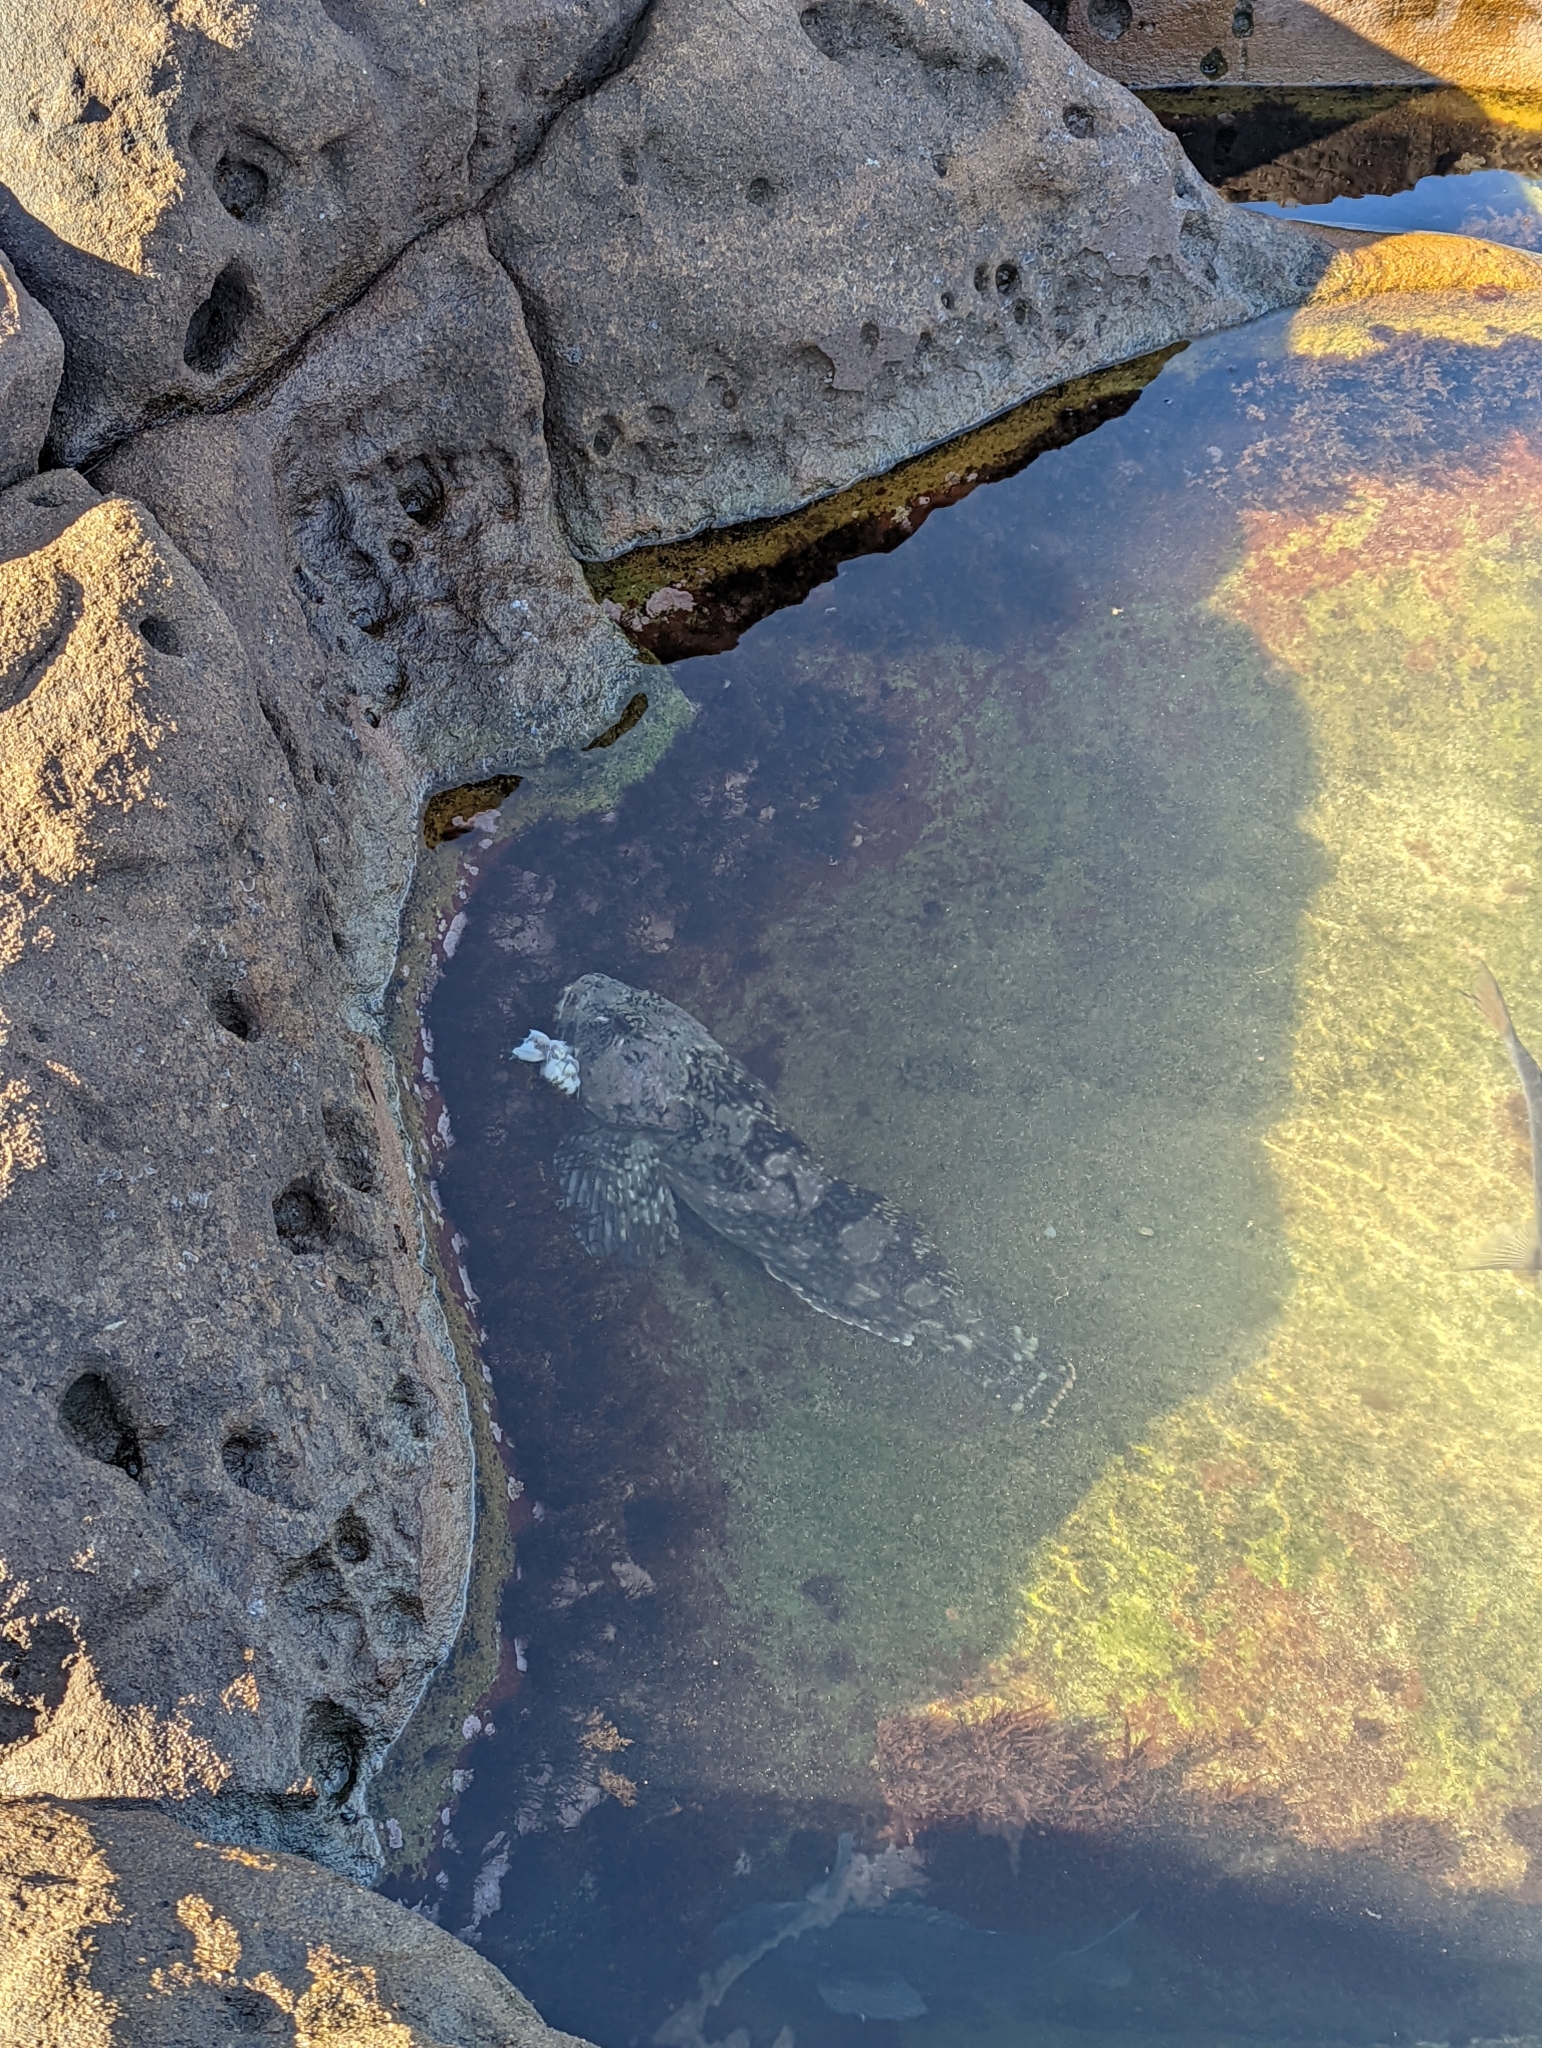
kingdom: Animalia
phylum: Chordata
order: Scorpaeniformes
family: Cottidae
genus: Scorpaenichthys
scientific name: Scorpaenichthys marmoratus
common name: Cabezon
